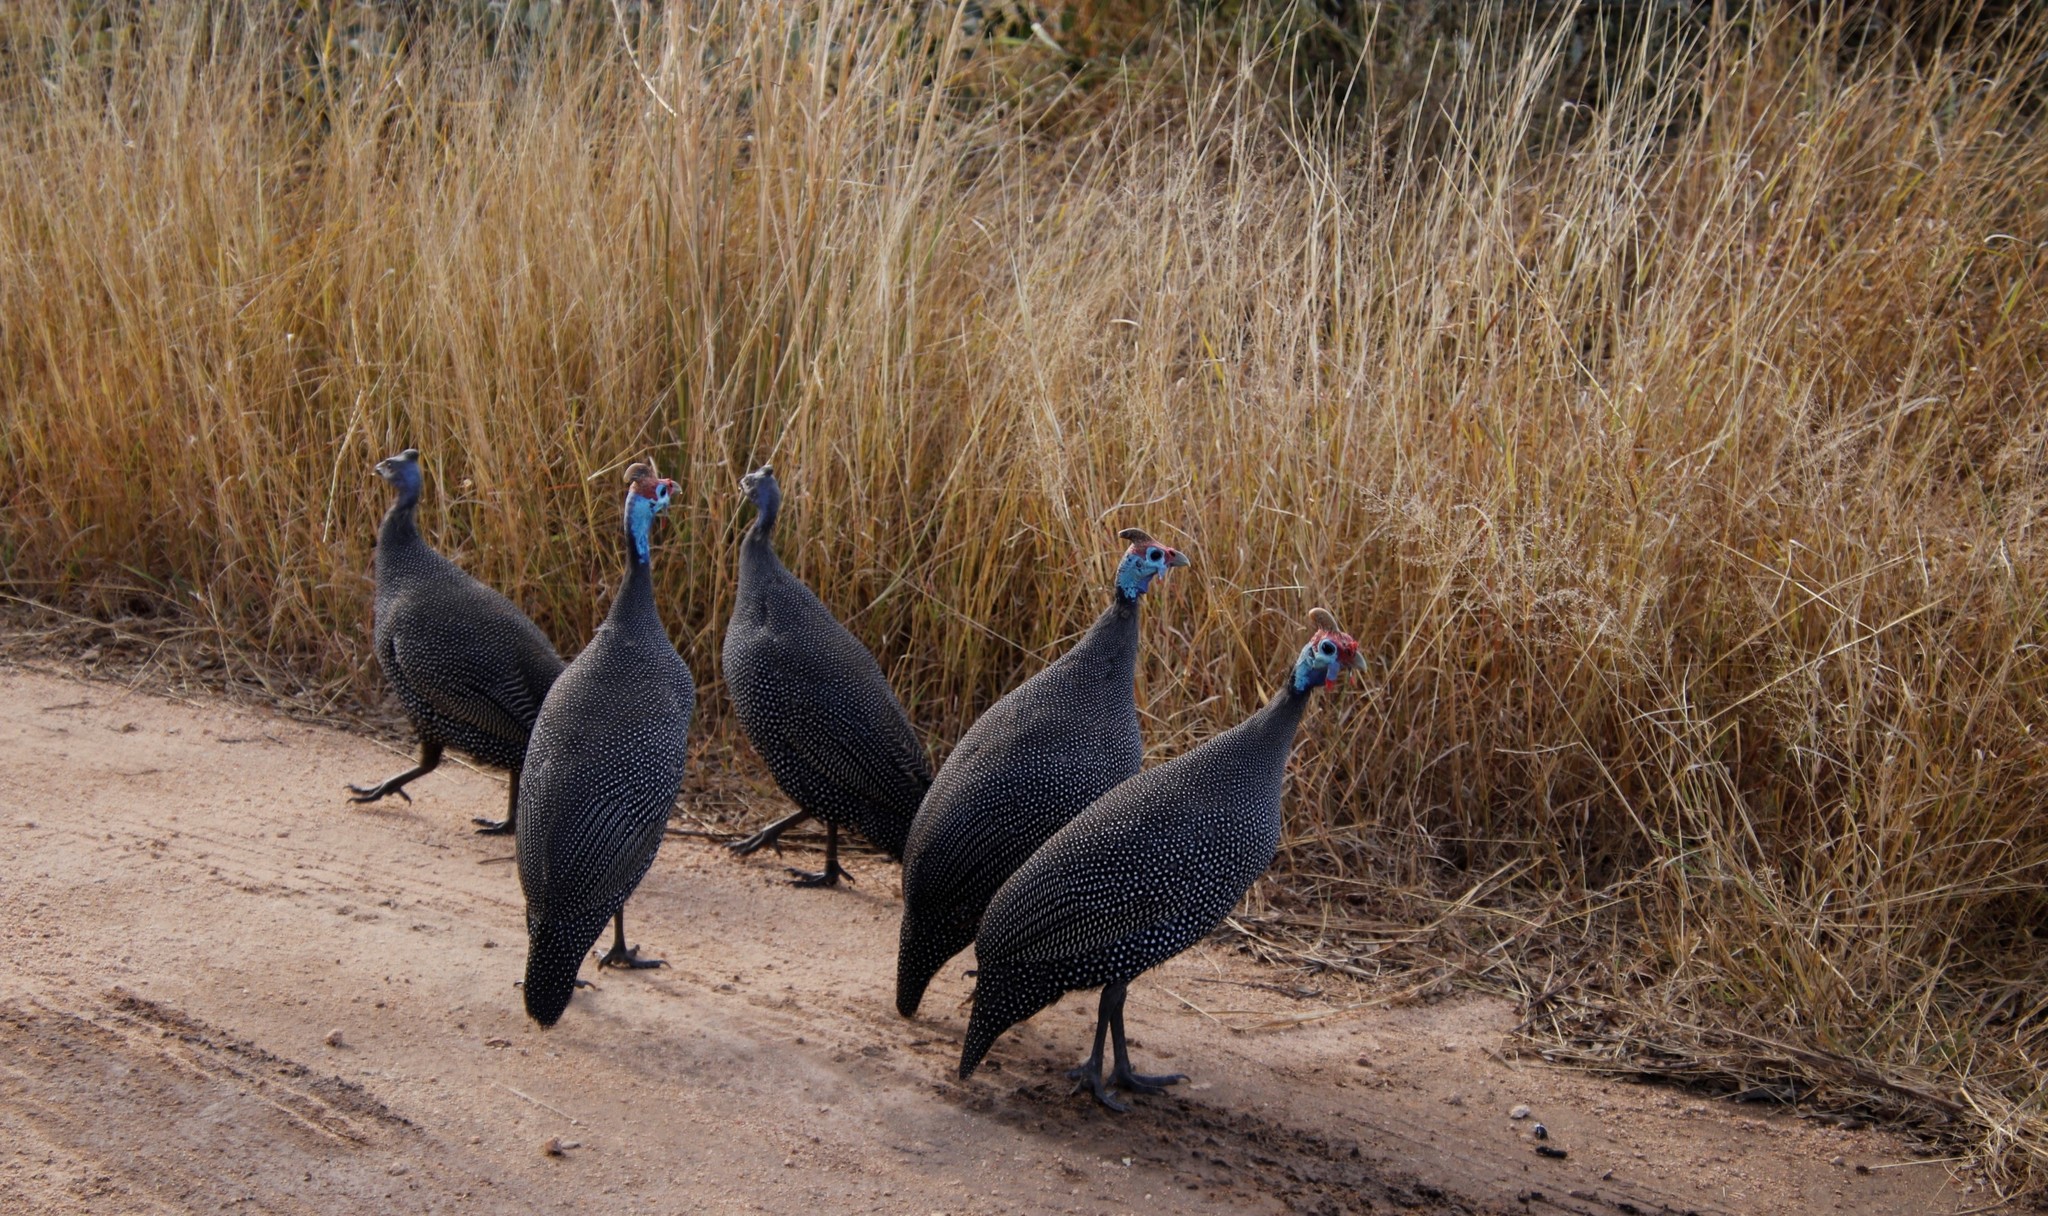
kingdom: Animalia
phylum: Chordata
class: Aves
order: Galliformes
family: Numididae
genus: Numida
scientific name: Numida meleagris
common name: Helmeted guineafowl
